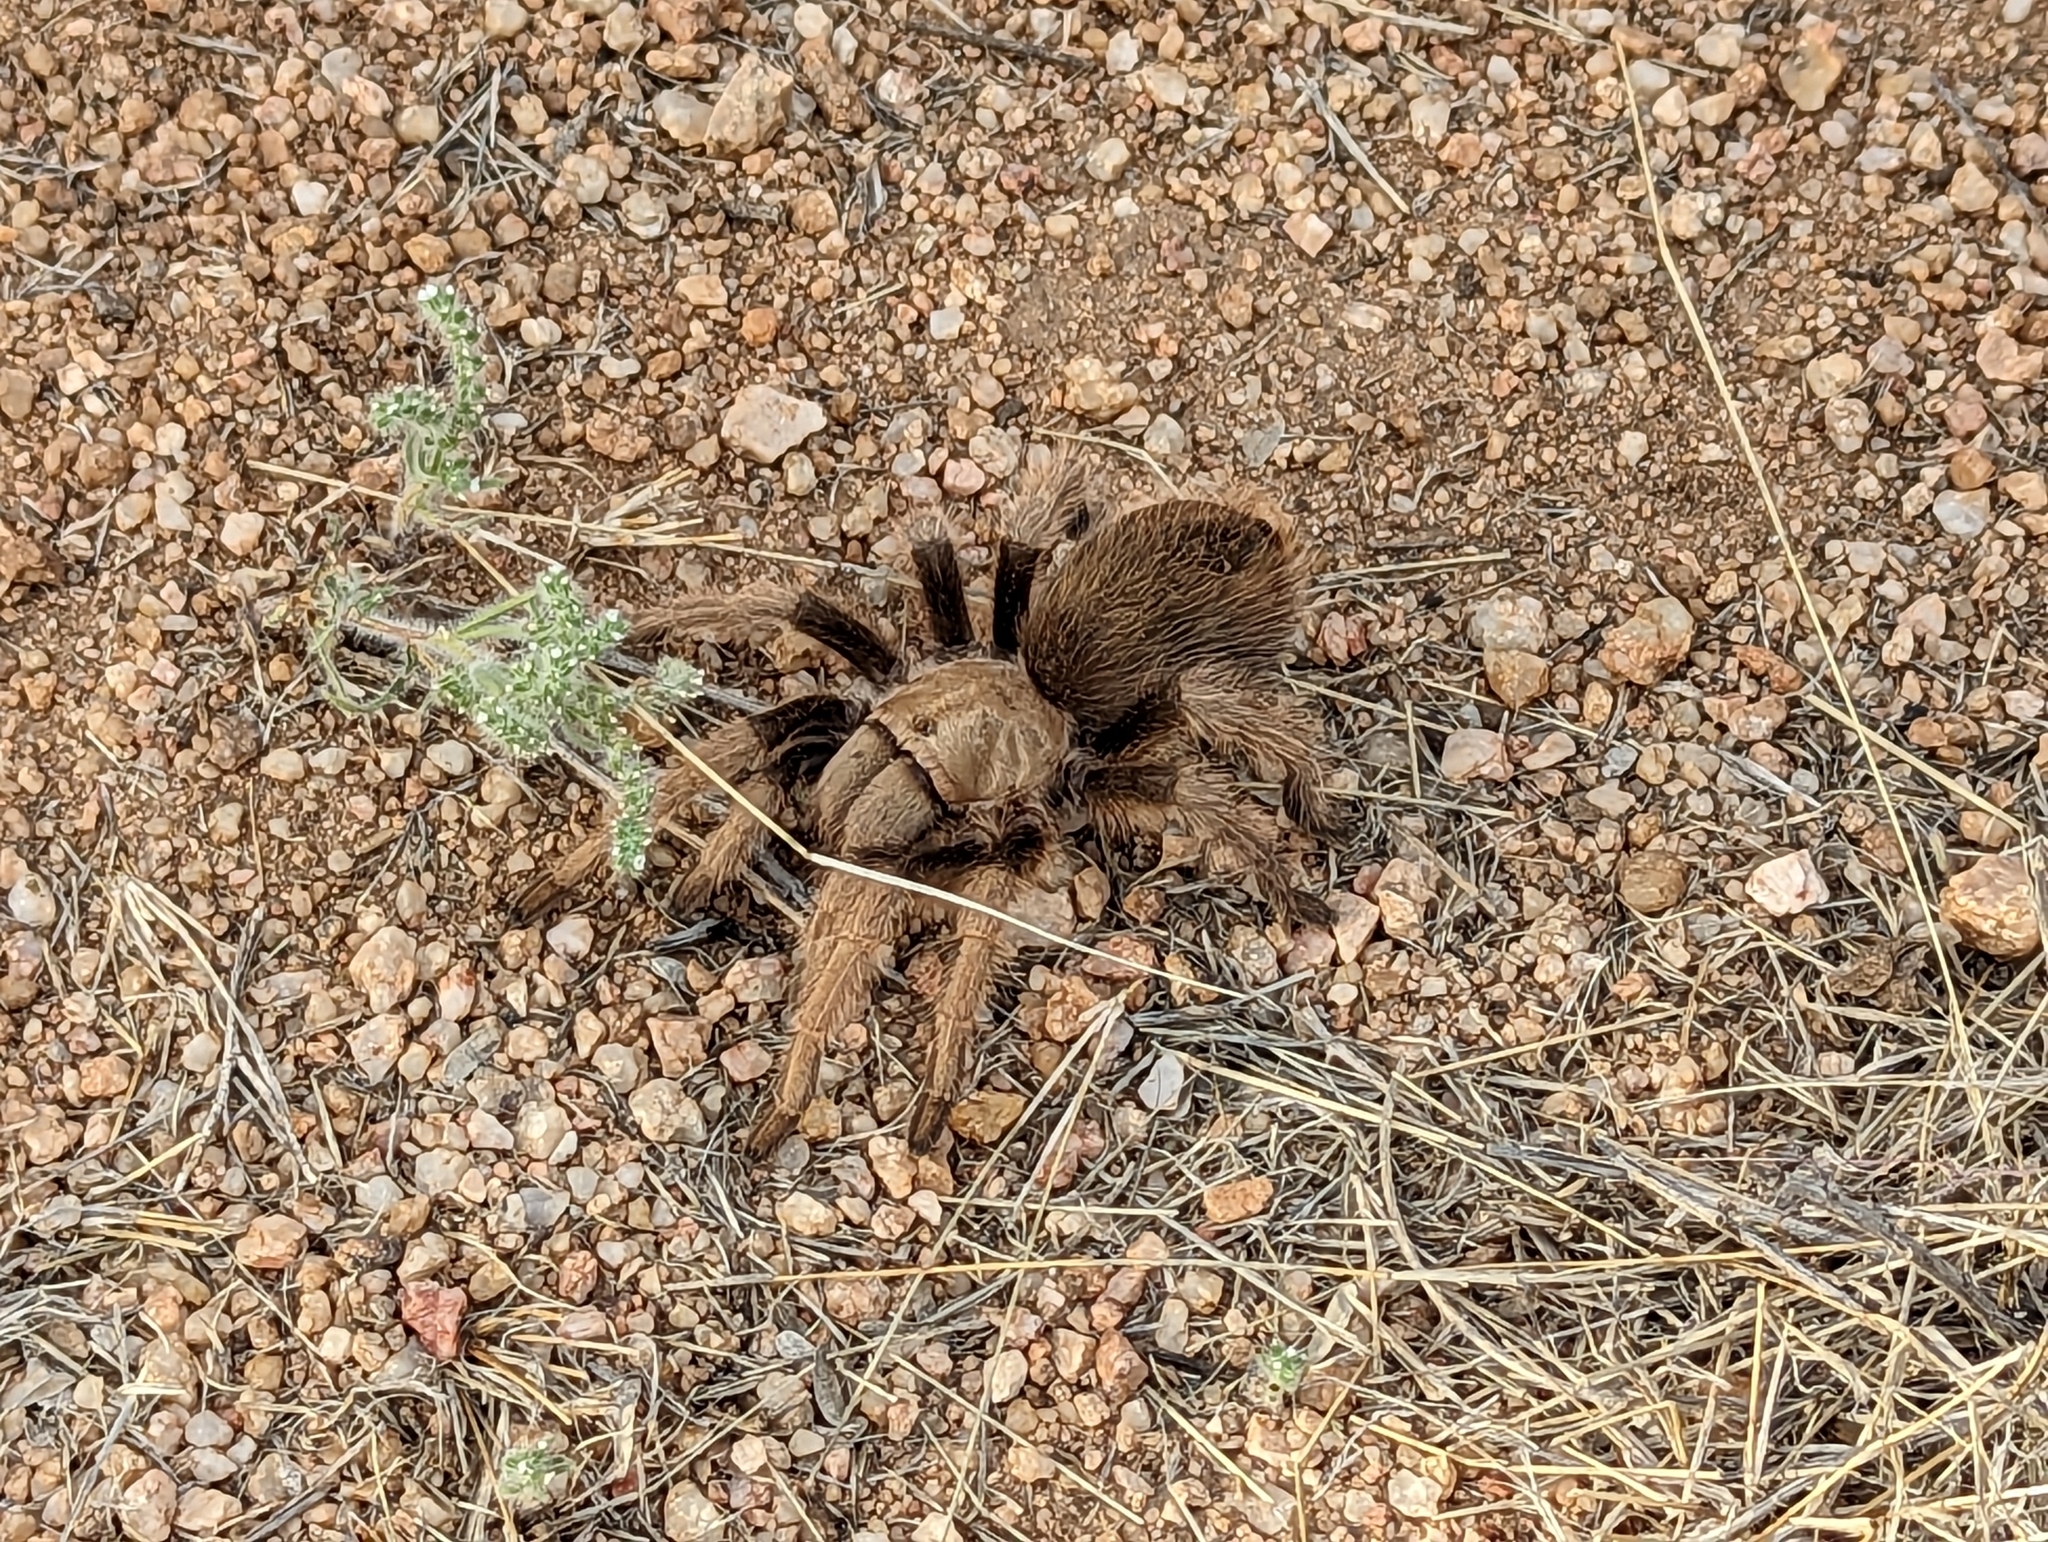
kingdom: Animalia
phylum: Arthropoda
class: Arachnida
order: Araneae
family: Theraphosidae
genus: Aphonopelma
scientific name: Aphonopelma chalcodes
